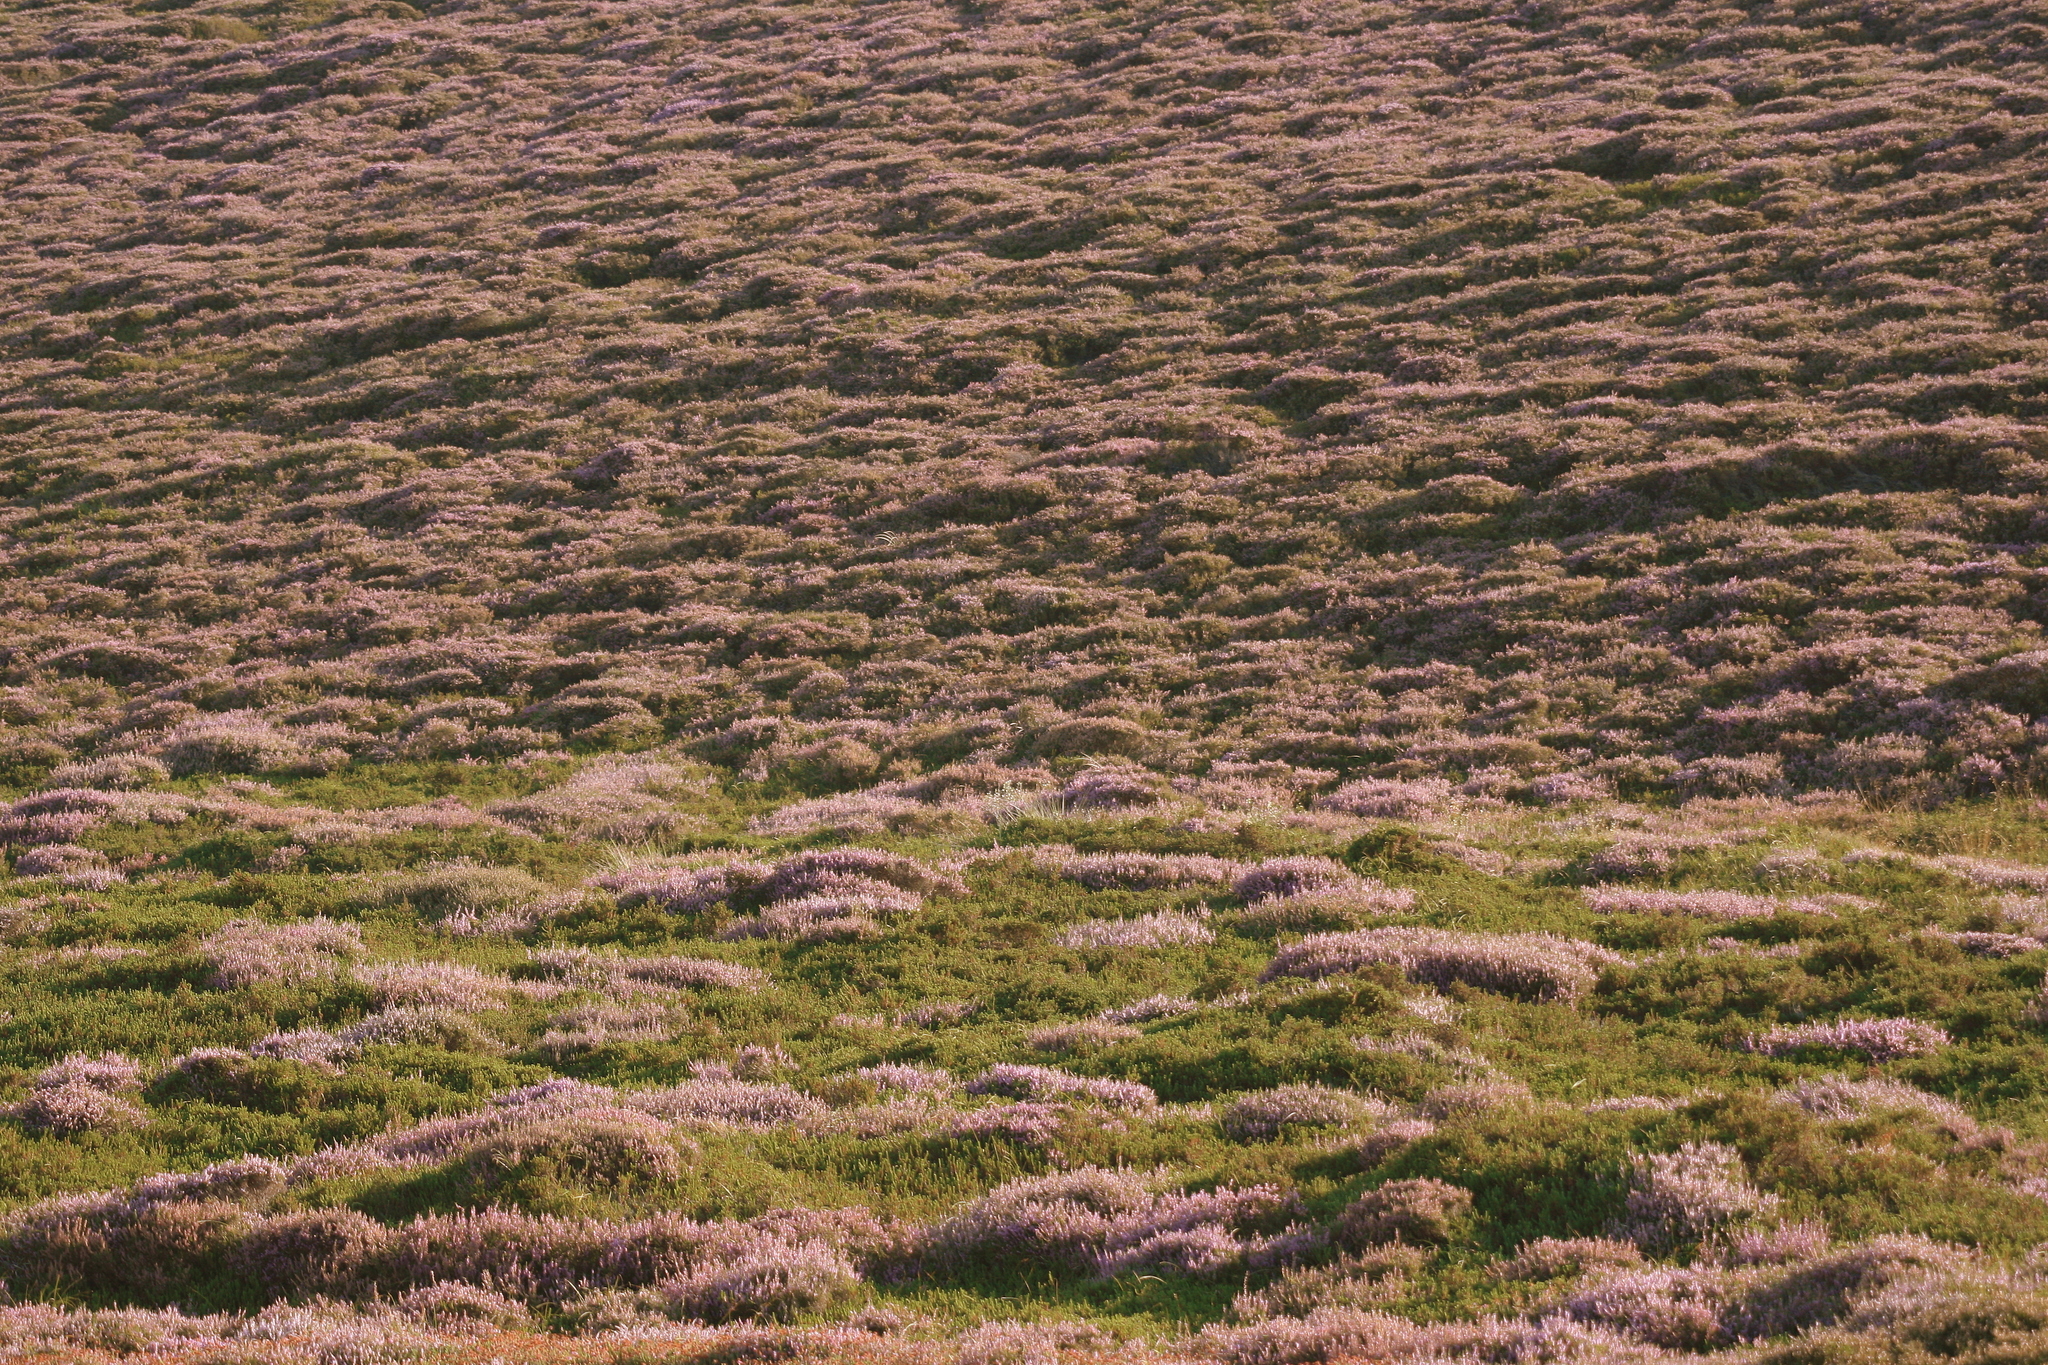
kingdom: Plantae
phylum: Tracheophyta
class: Magnoliopsida
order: Ericales
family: Ericaceae
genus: Calluna
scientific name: Calluna vulgaris
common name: Heather
